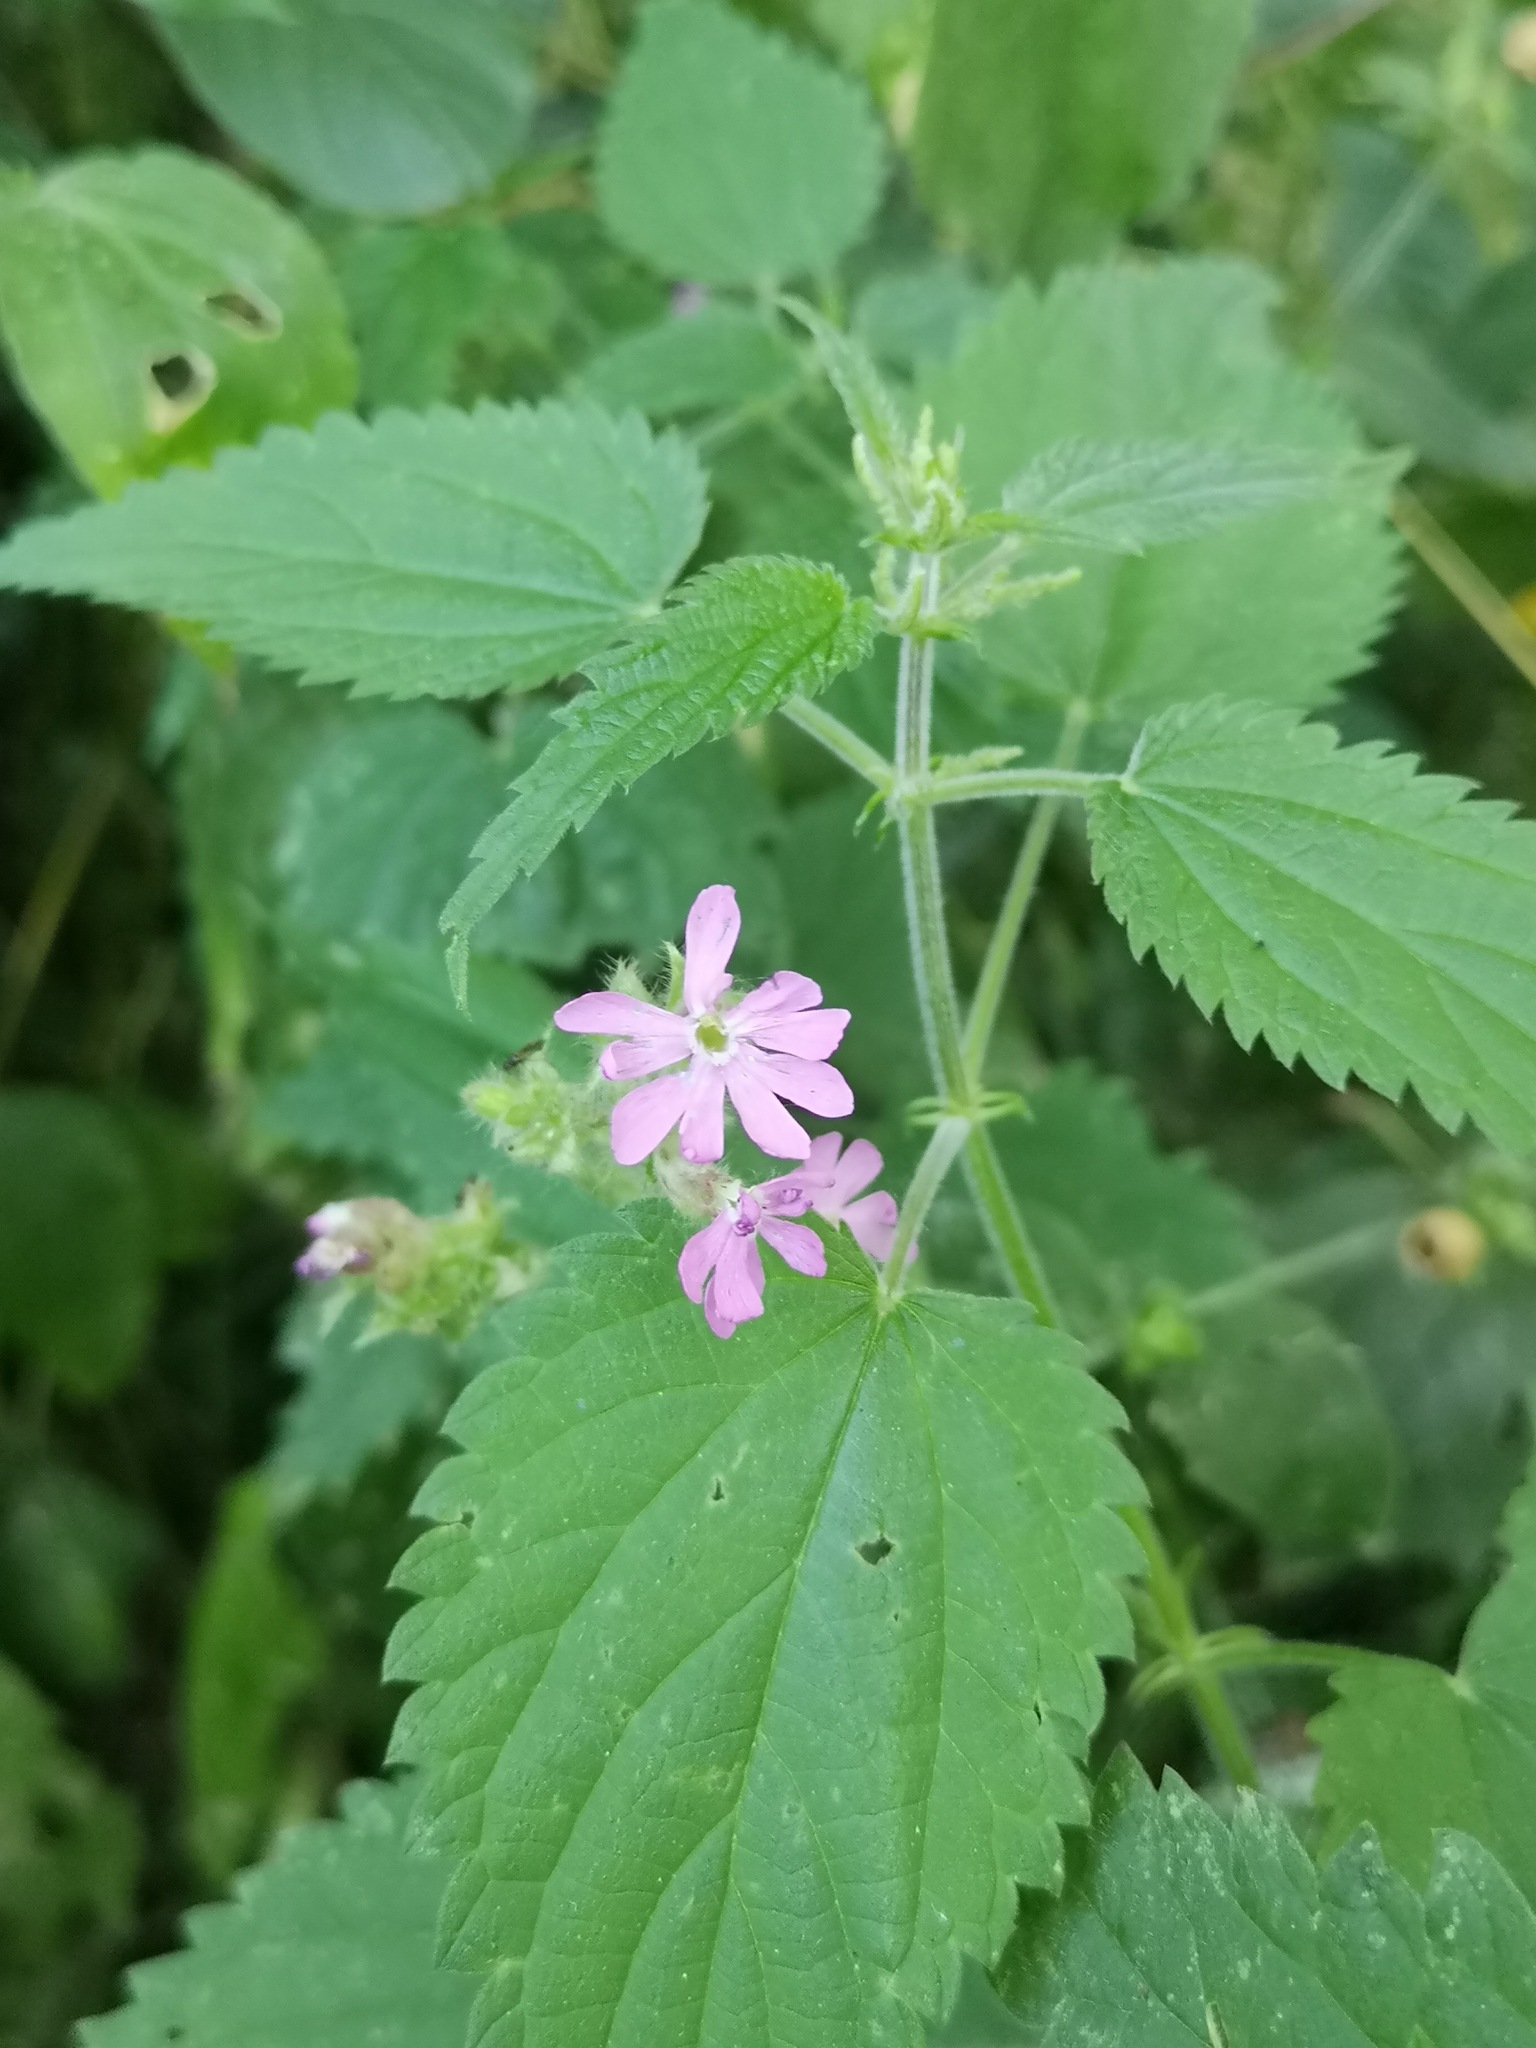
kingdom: Plantae
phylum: Tracheophyta
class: Magnoliopsida
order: Caryophyllales
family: Caryophyllaceae
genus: Silene
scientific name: Silene dioica
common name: Red campion
